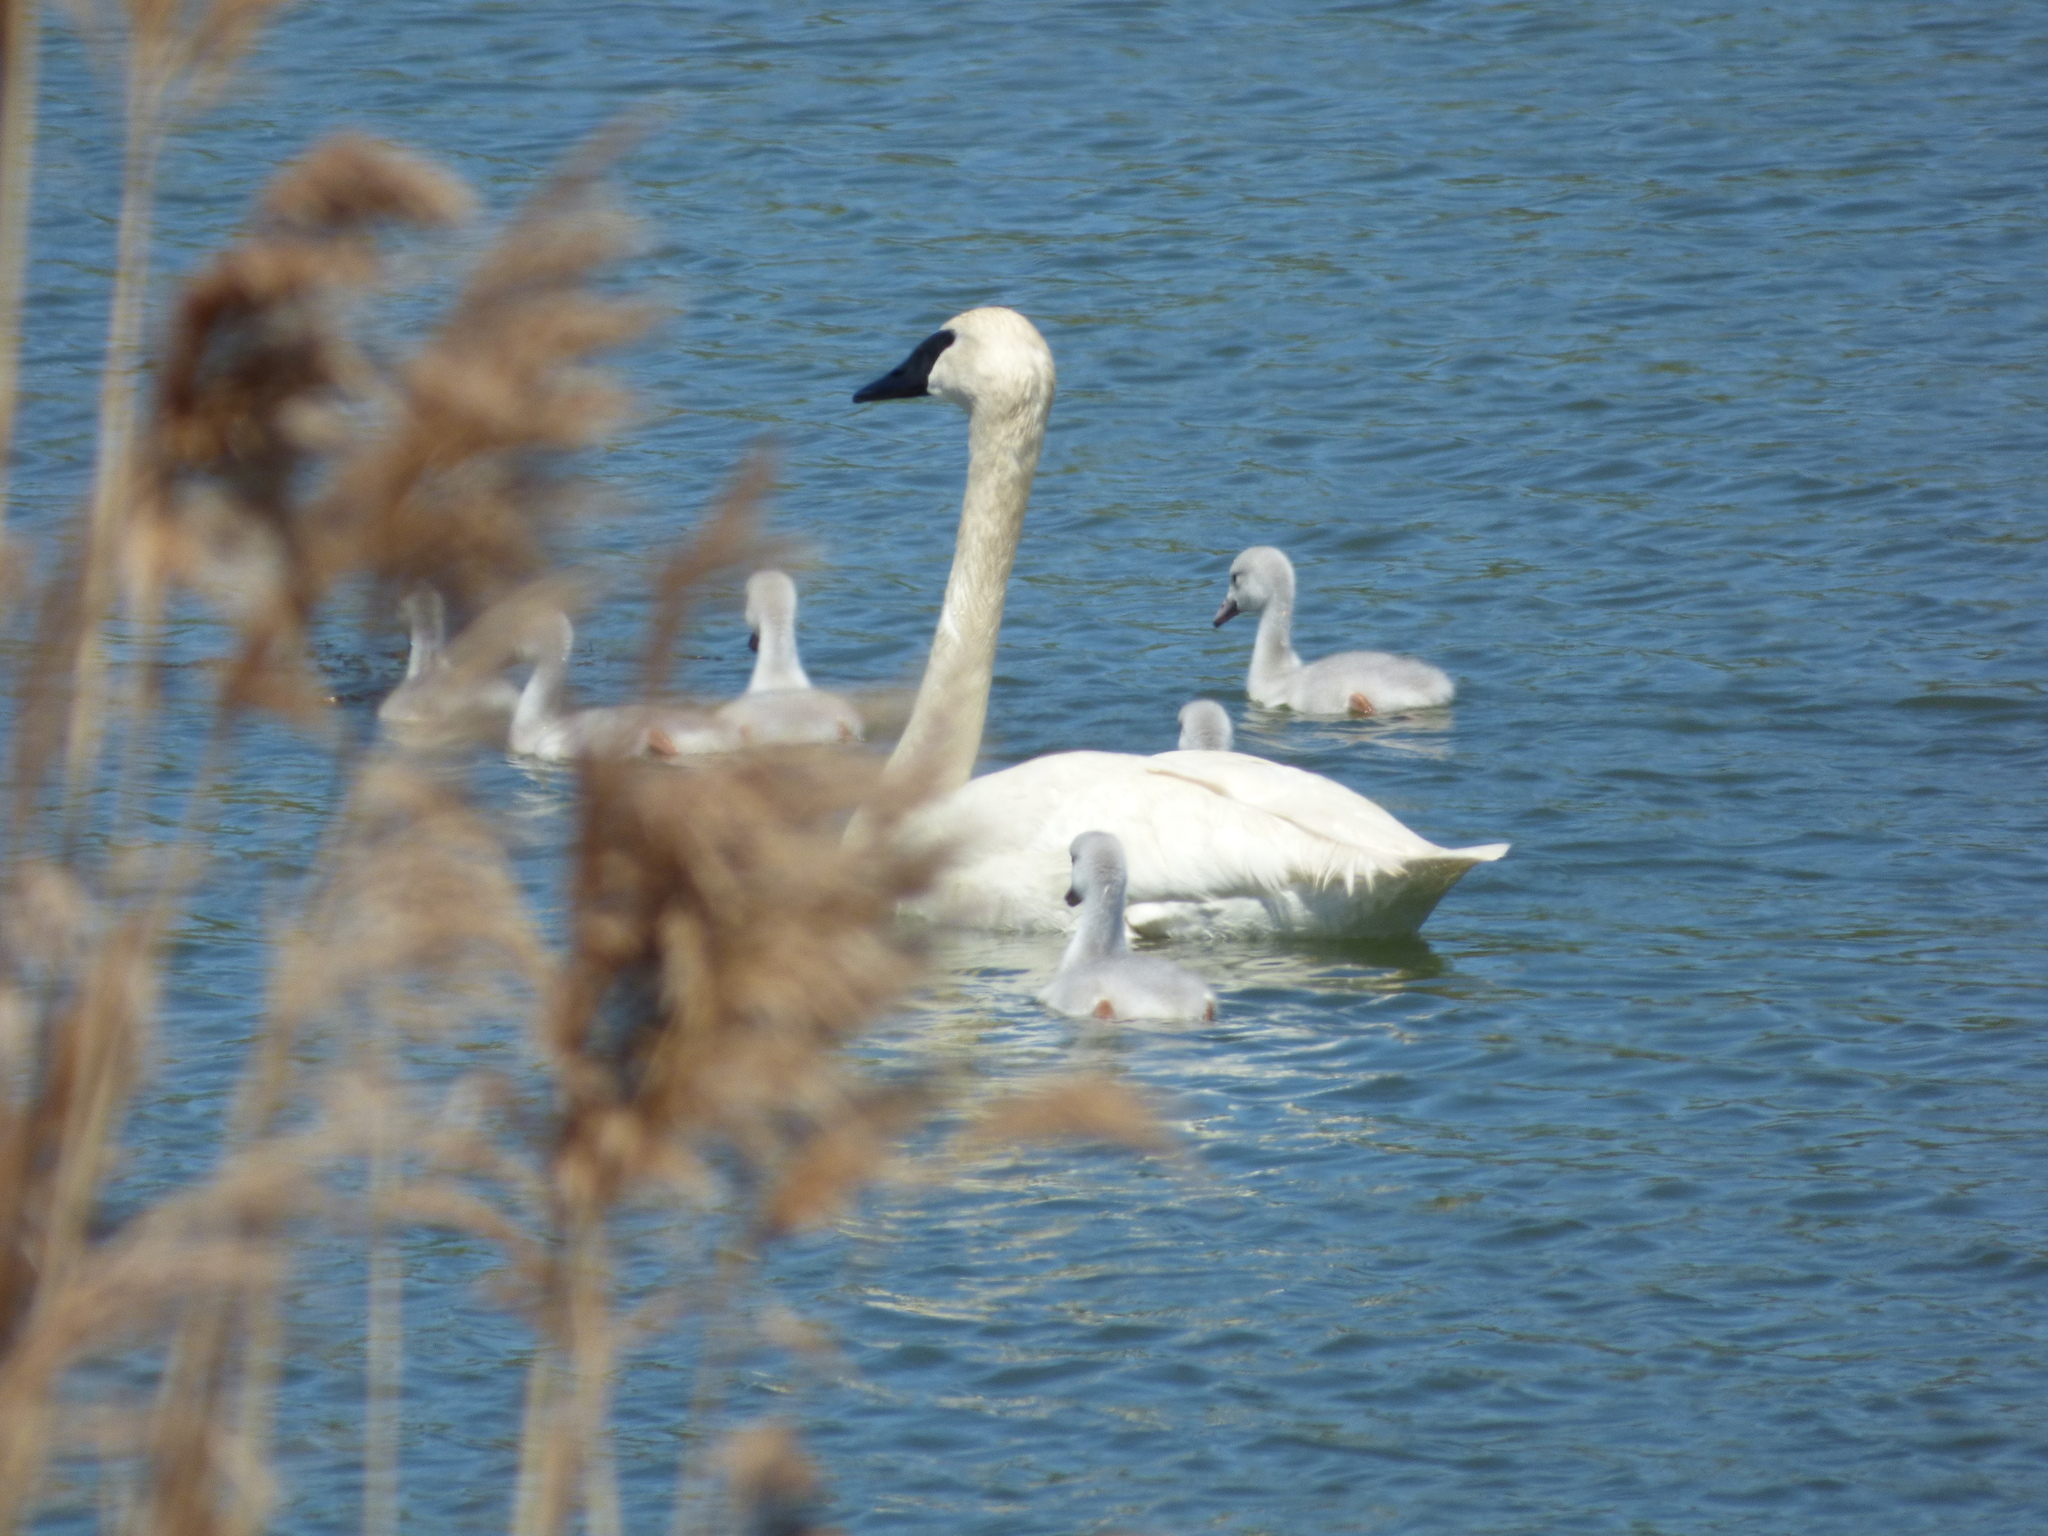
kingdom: Animalia
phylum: Chordata
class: Aves
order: Anseriformes
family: Anatidae
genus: Cygnus
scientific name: Cygnus buccinator
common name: Trumpeter swan
